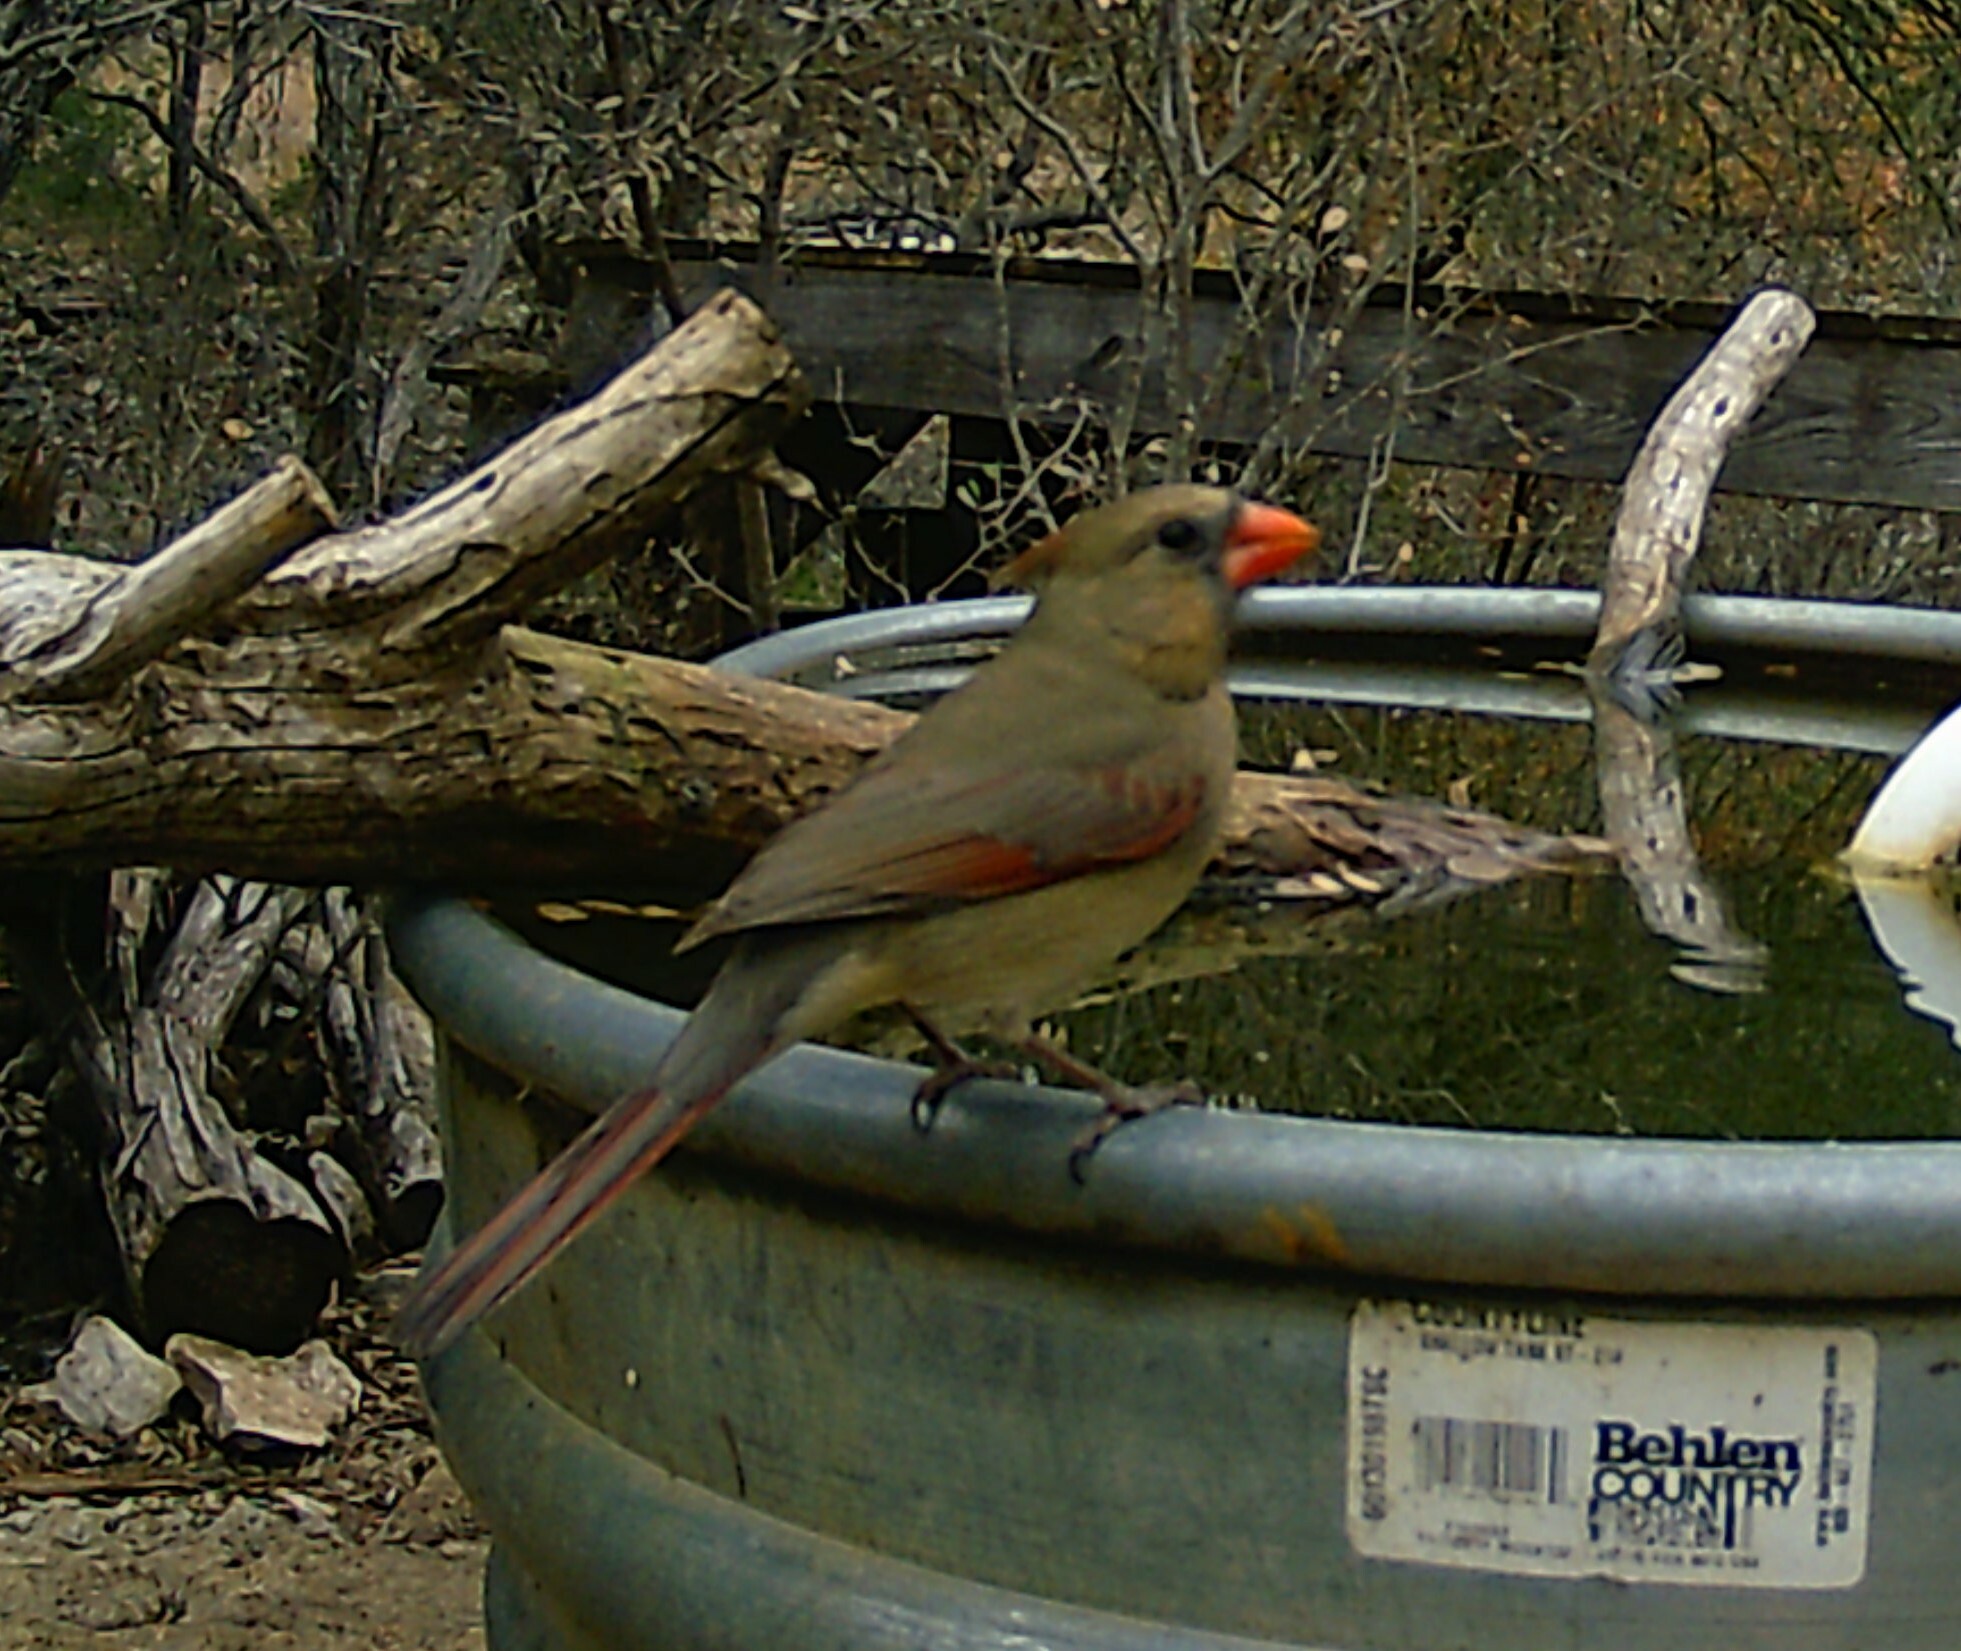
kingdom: Animalia
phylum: Chordata
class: Aves
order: Passeriformes
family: Cardinalidae
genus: Cardinalis
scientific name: Cardinalis cardinalis
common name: Northern cardinal
